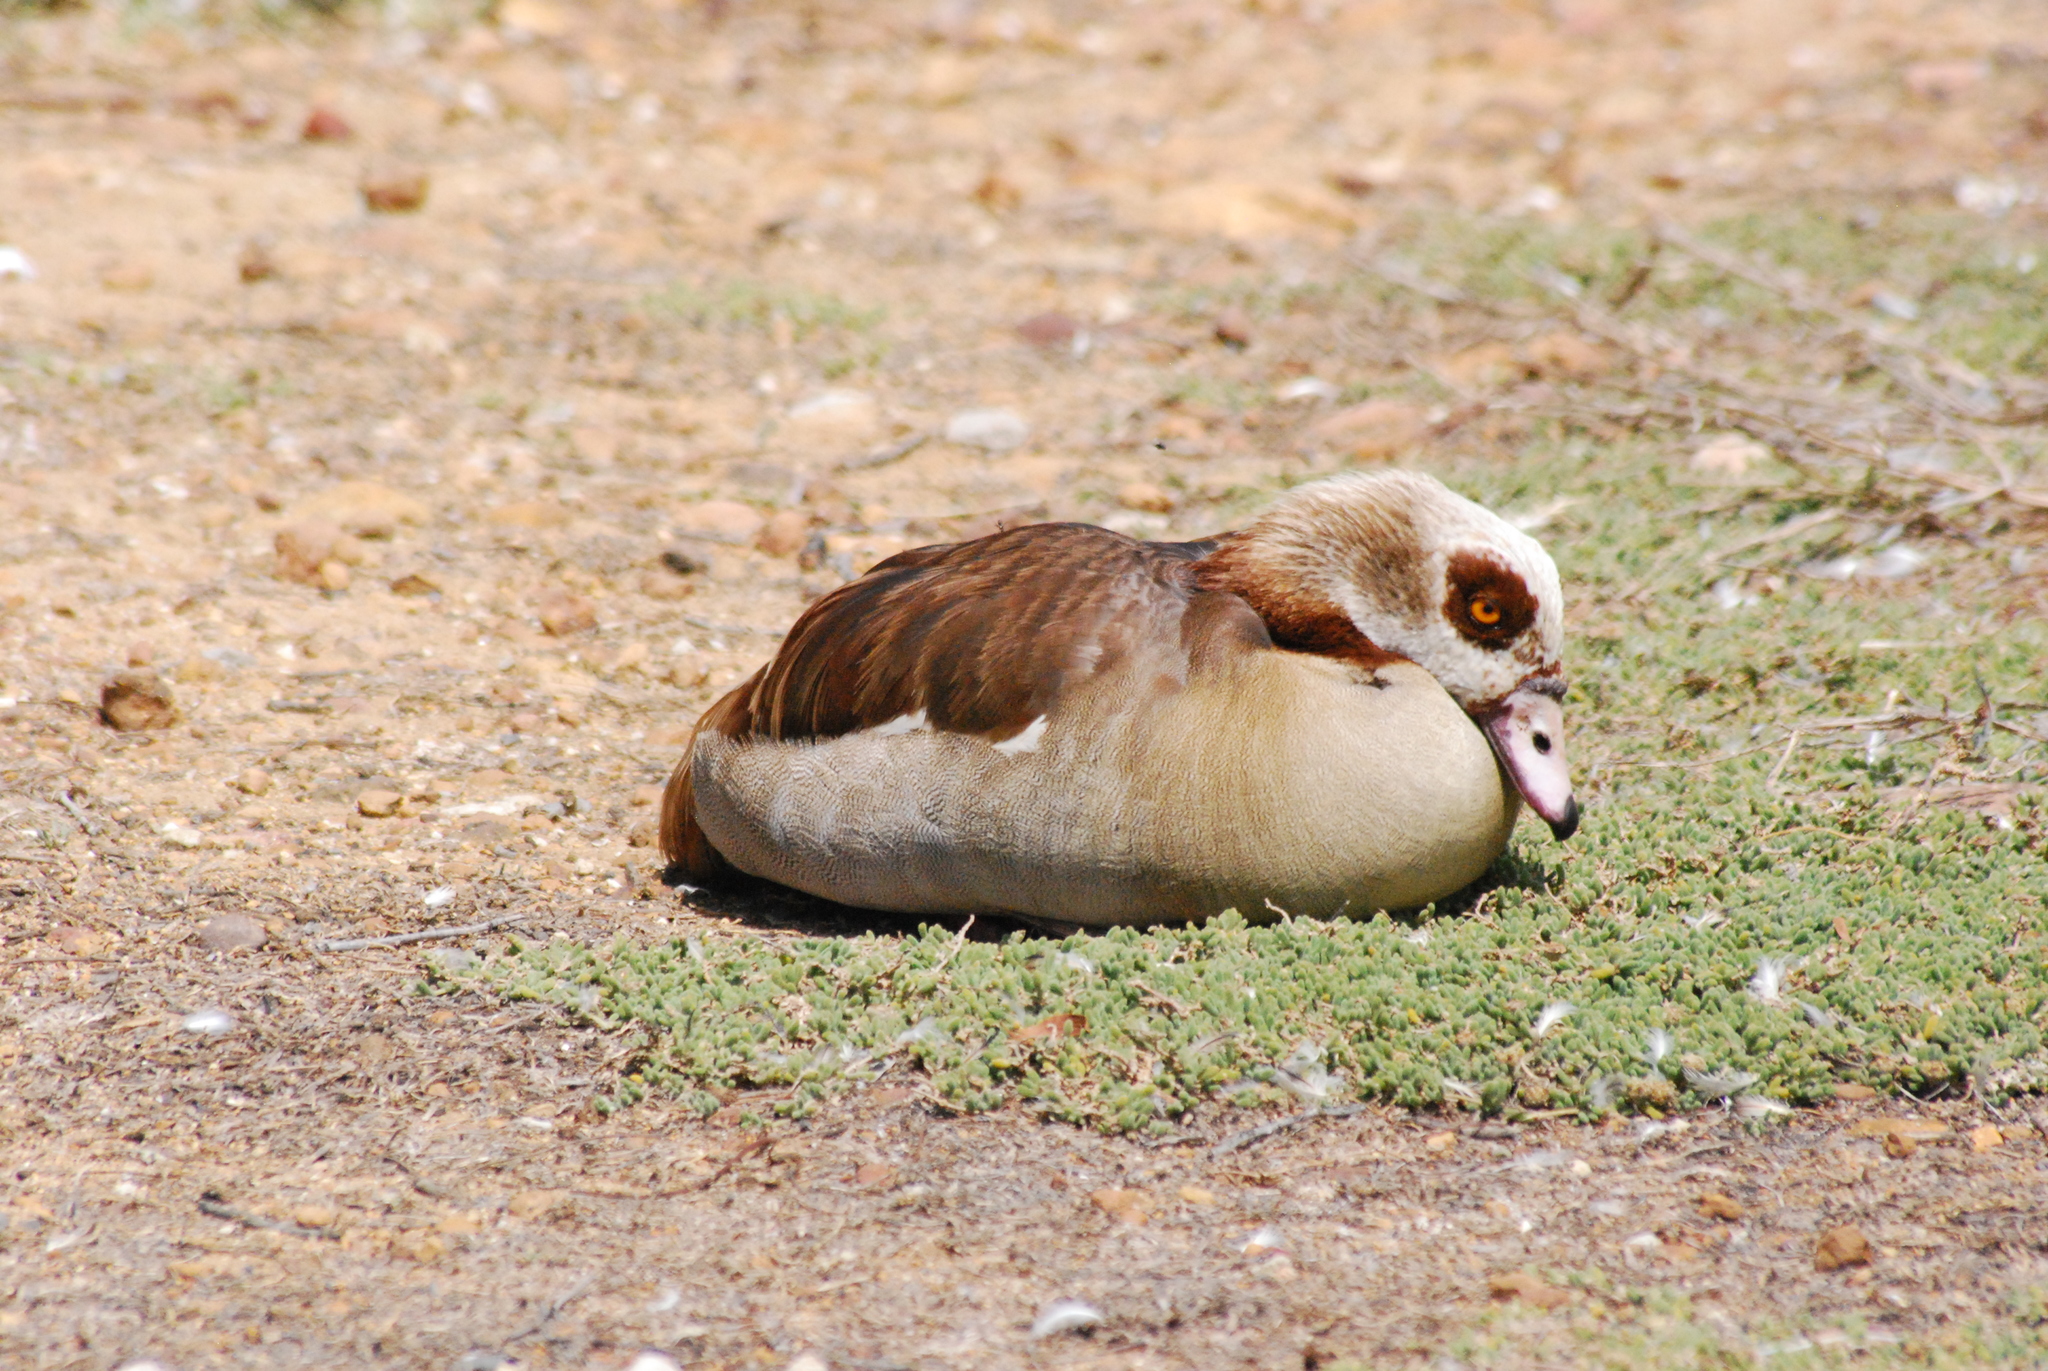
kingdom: Animalia
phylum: Chordata
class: Aves
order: Anseriformes
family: Anatidae
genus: Alopochen
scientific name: Alopochen aegyptiaca
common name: Egyptian goose
